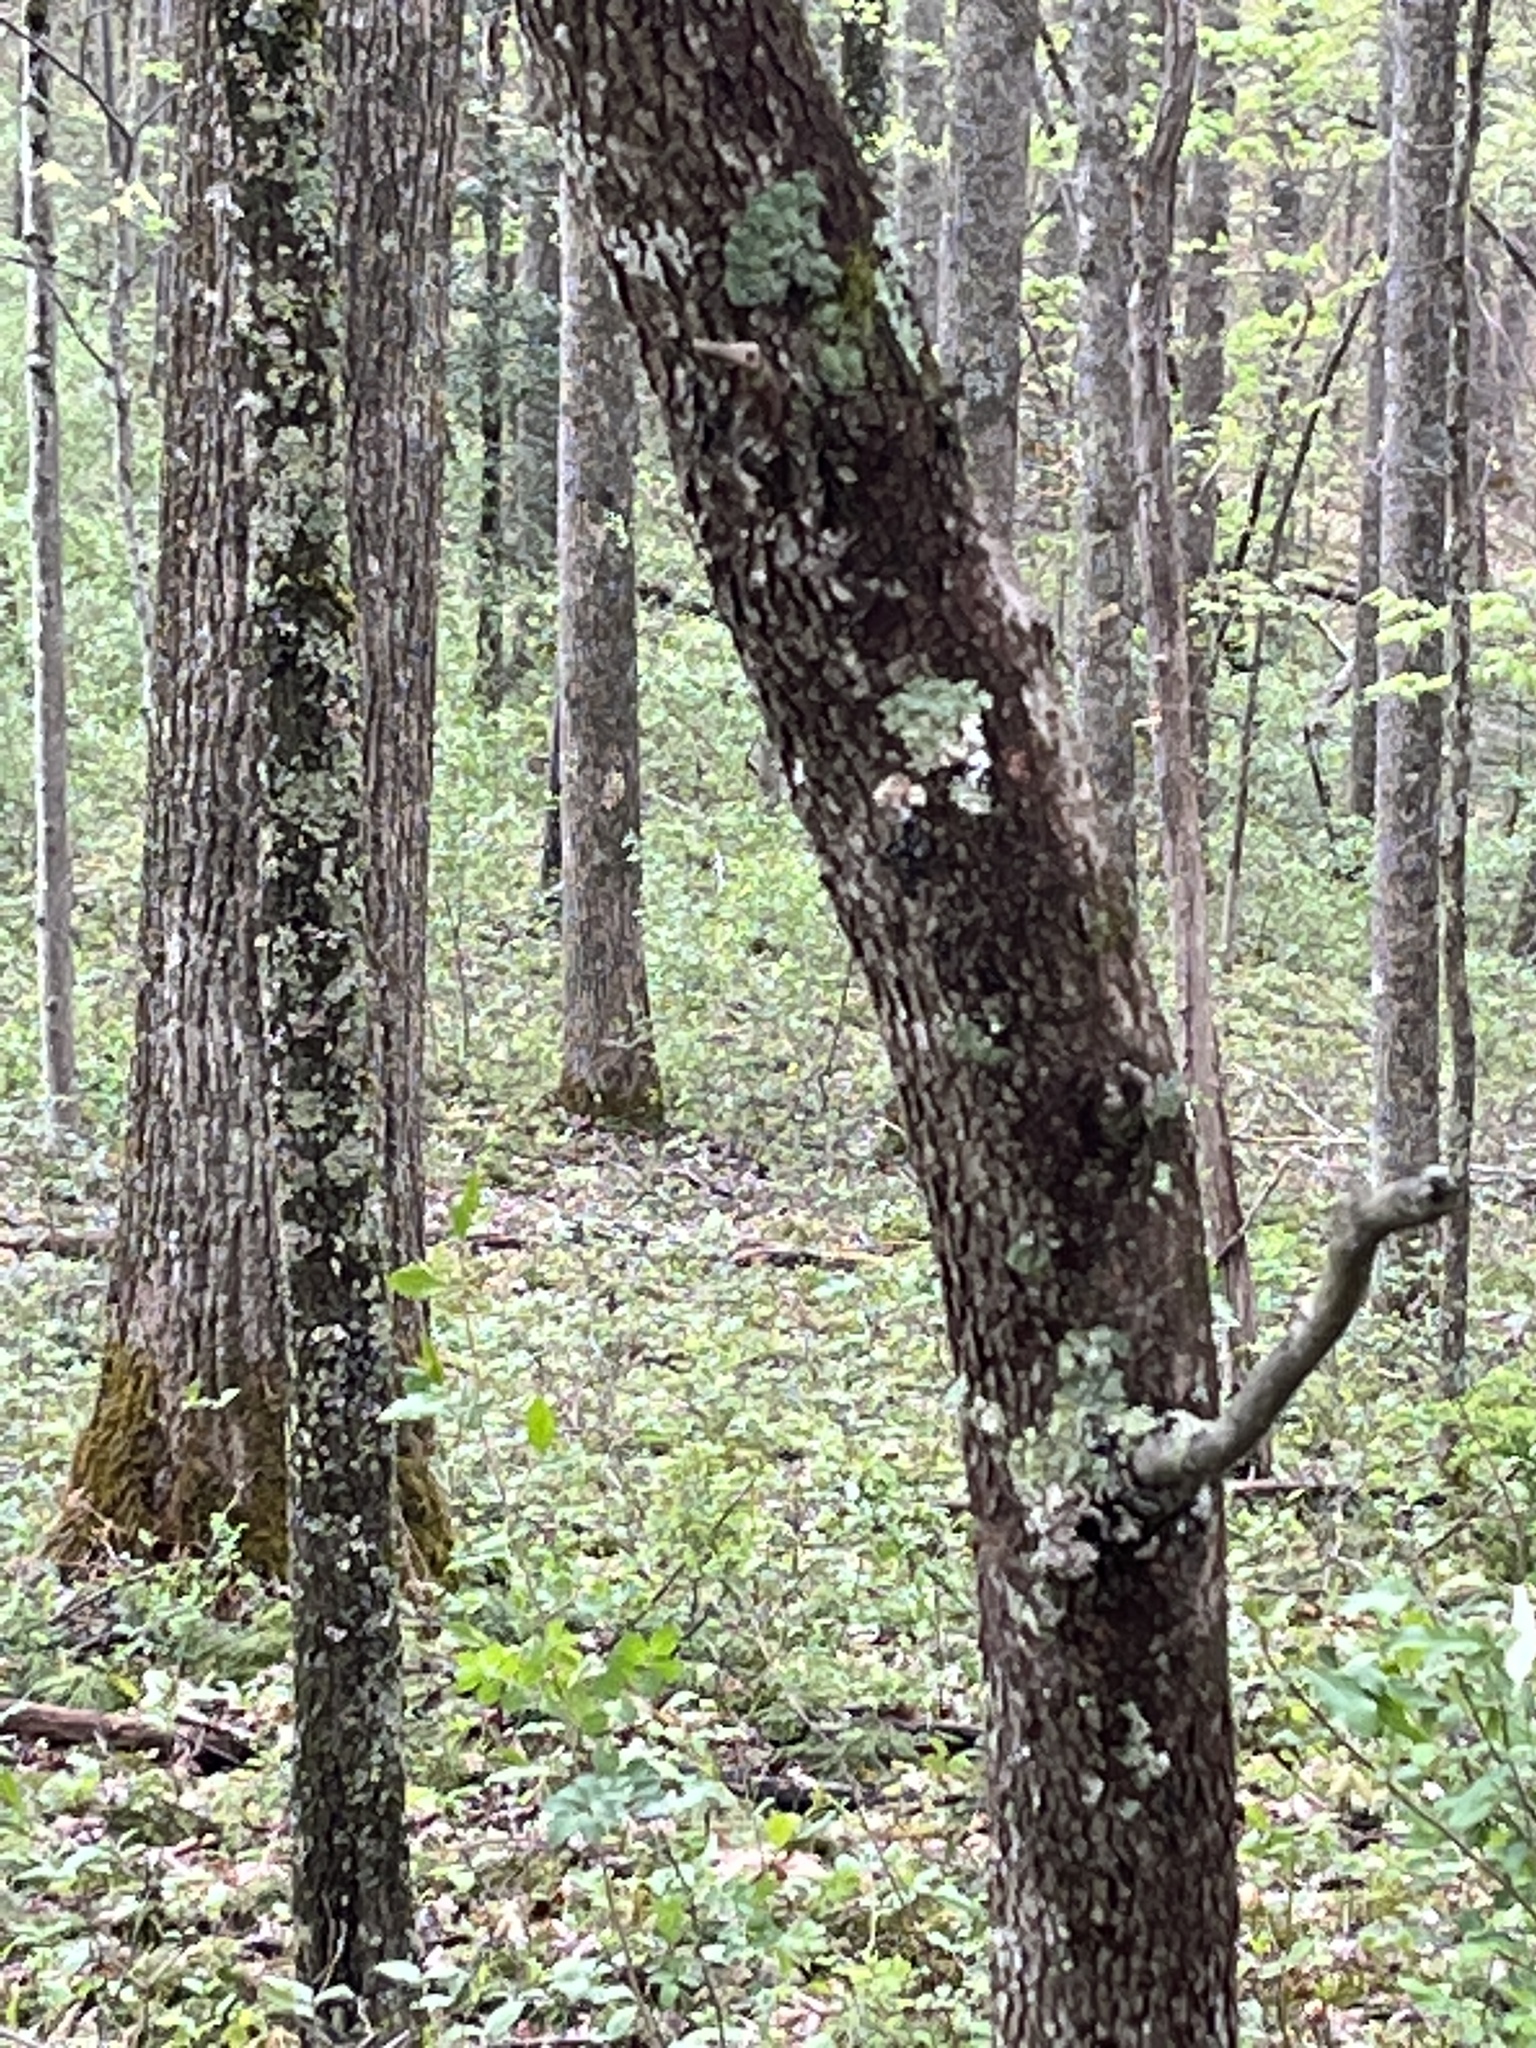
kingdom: Plantae
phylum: Tracheophyta
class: Magnoliopsida
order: Cornales
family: Cornaceae
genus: Cornus
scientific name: Cornus florida
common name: Flowering dogwood
